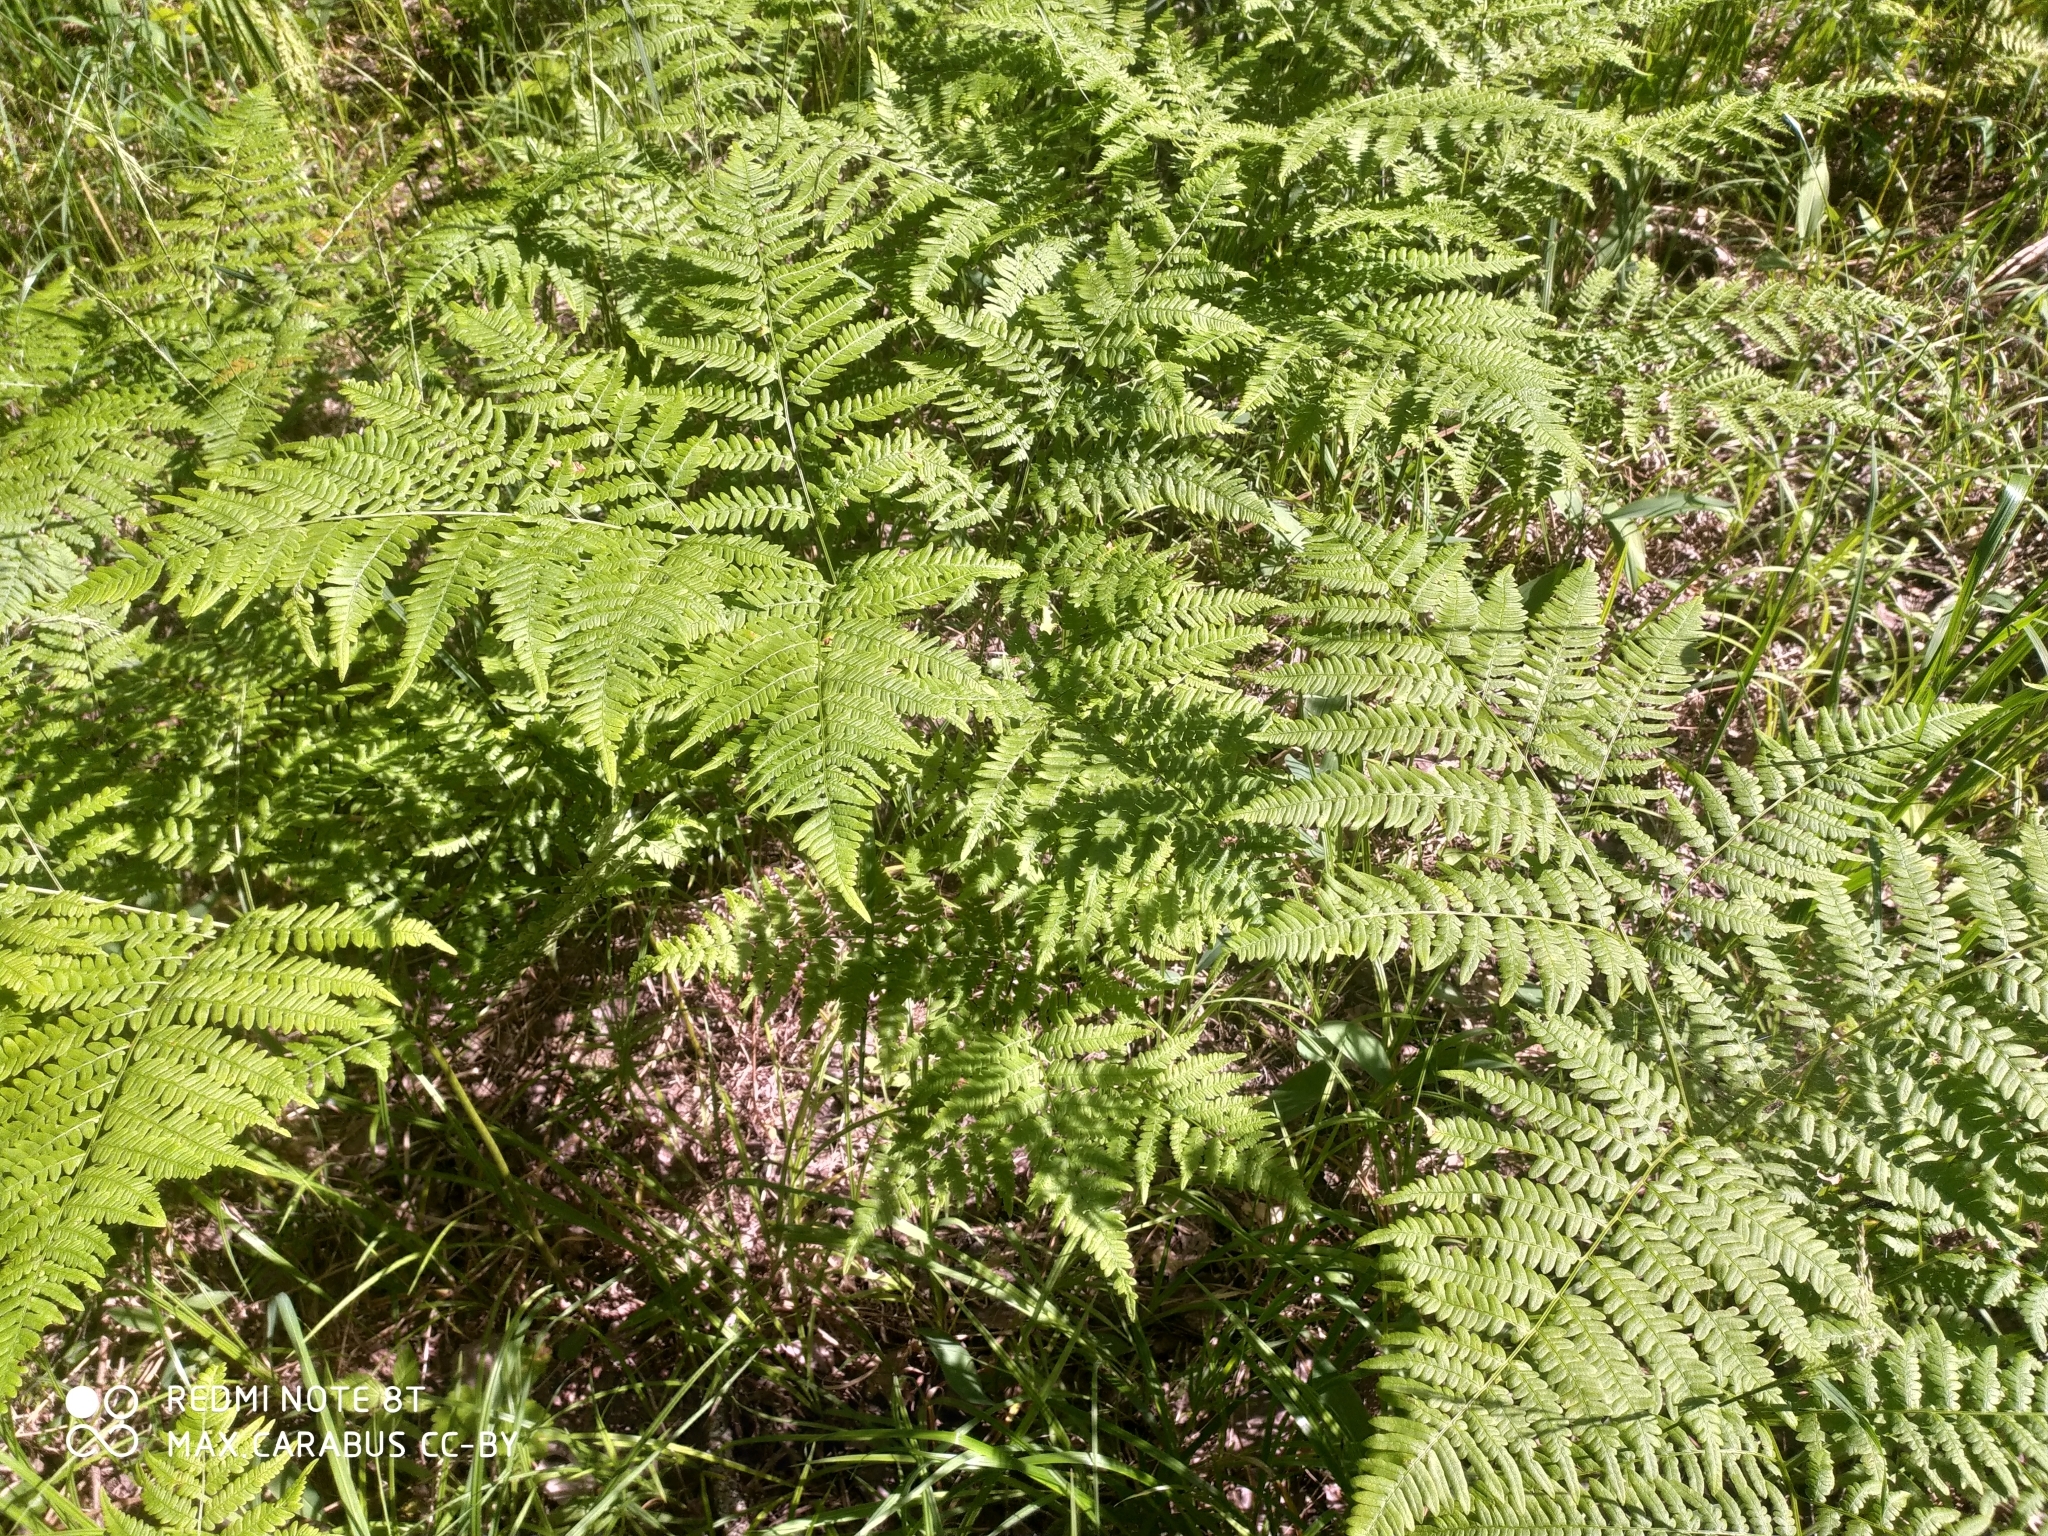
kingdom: Plantae
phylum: Tracheophyta
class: Polypodiopsida
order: Polypodiales
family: Dennstaedtiaceae
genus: Pteridium
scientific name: Pteridium aquilinum
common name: Bracken
